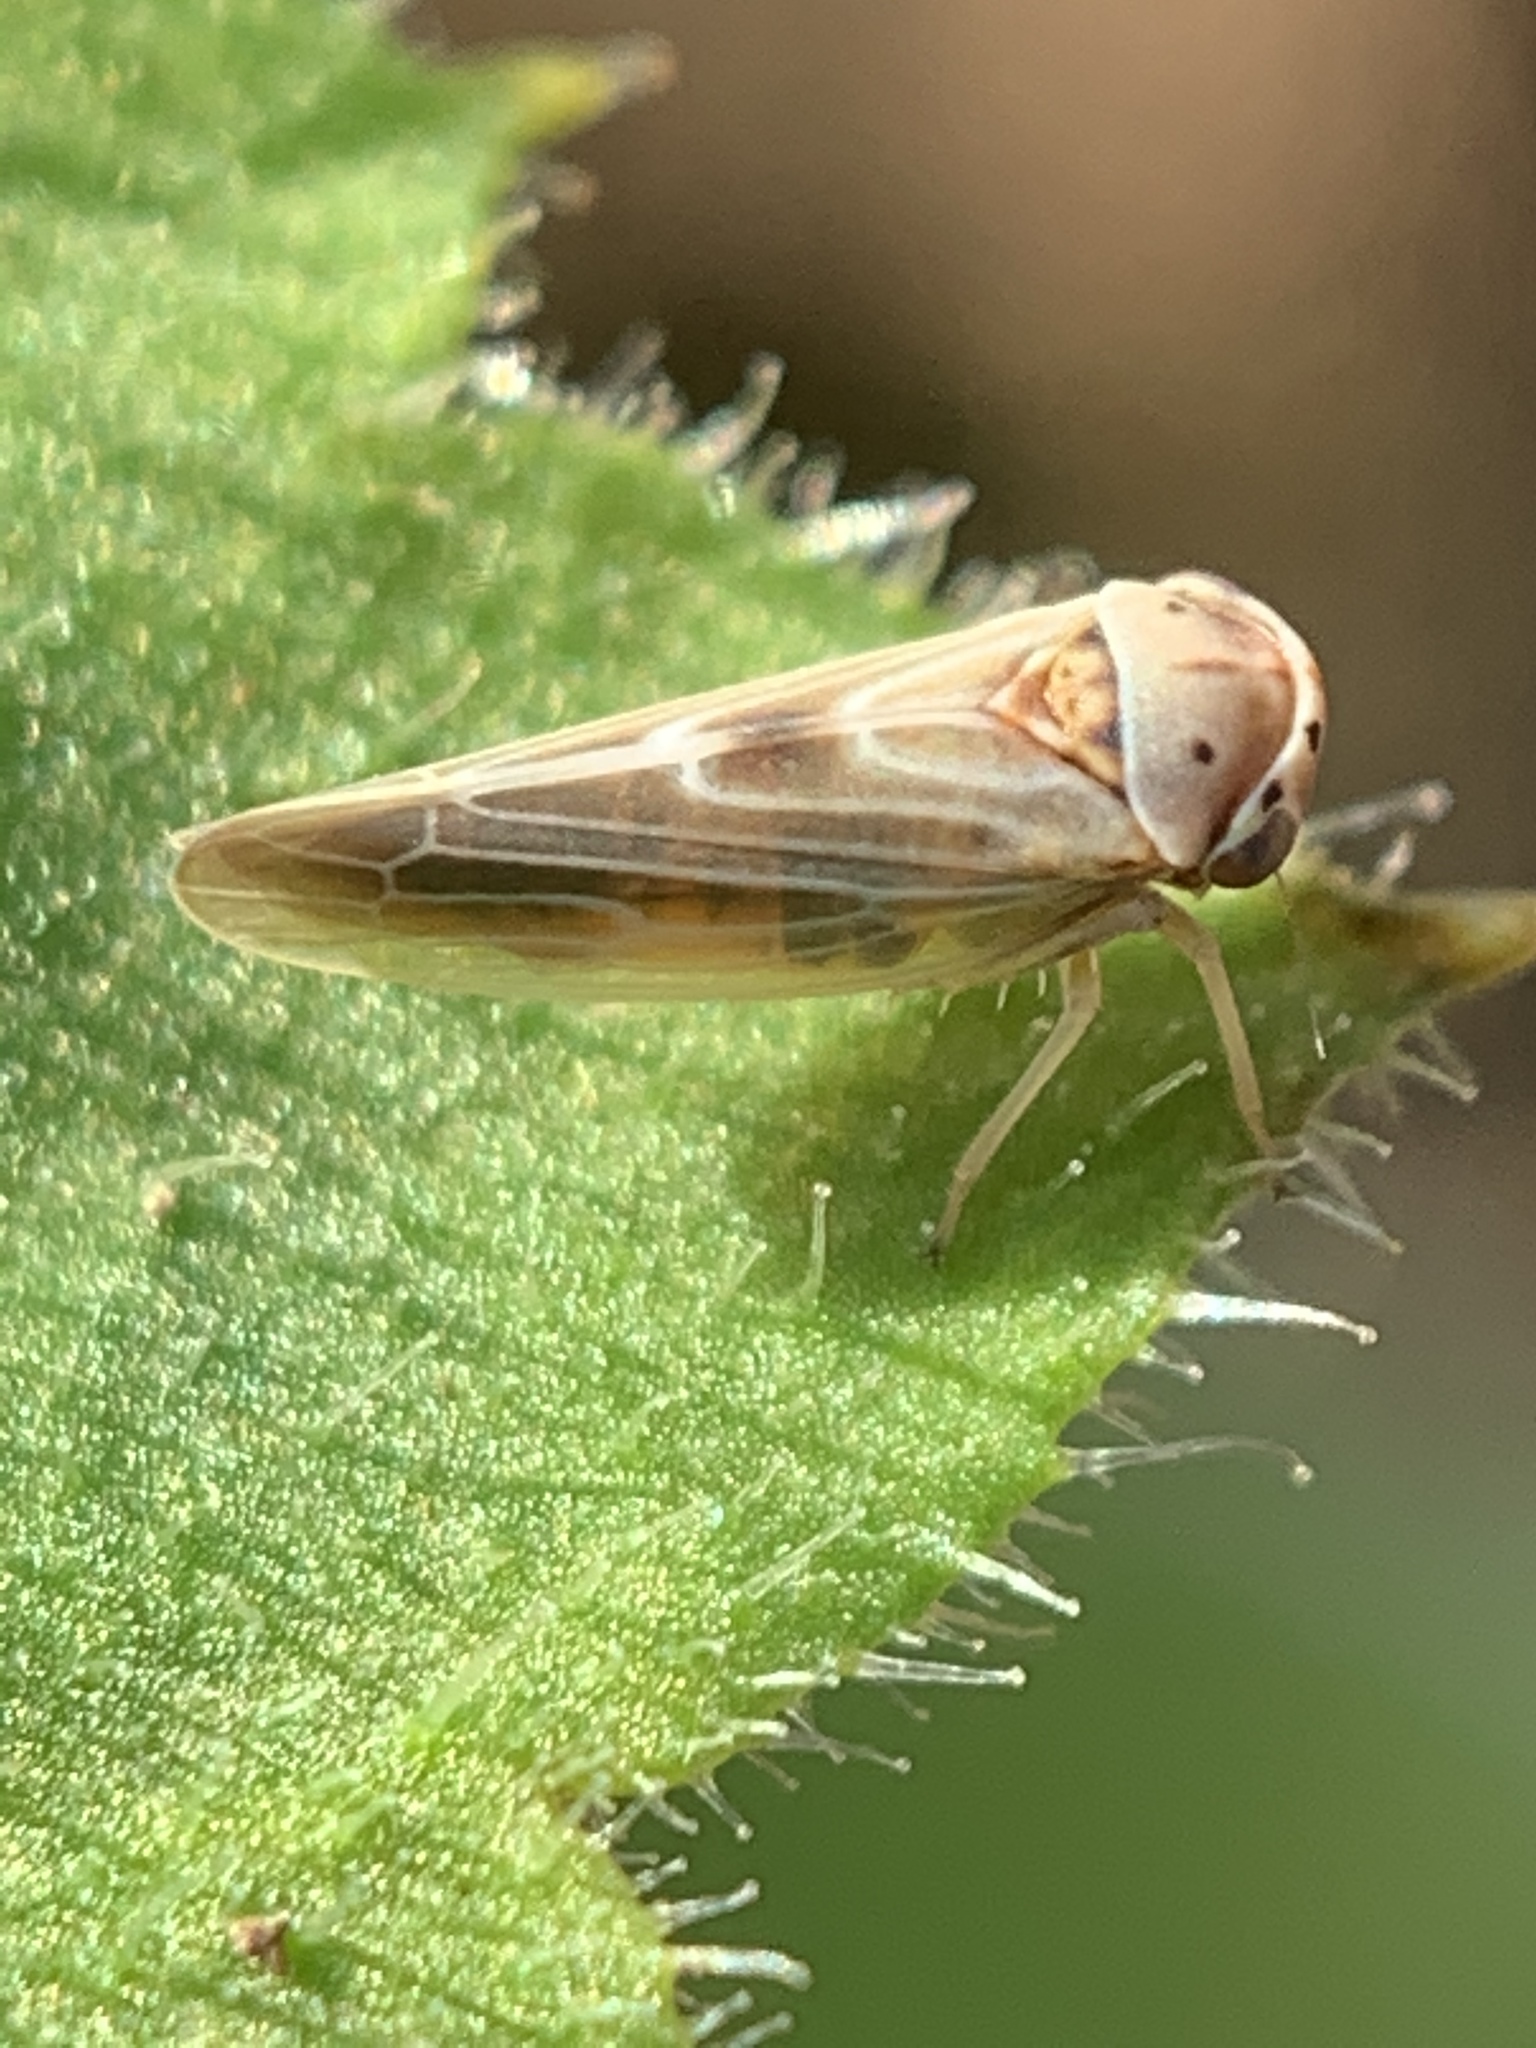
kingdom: Animalia
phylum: Arthropoda
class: Insecta
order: Hemiptera
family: Cicadellidae
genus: Agalliopsis
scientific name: Agalliopsis ancistra
